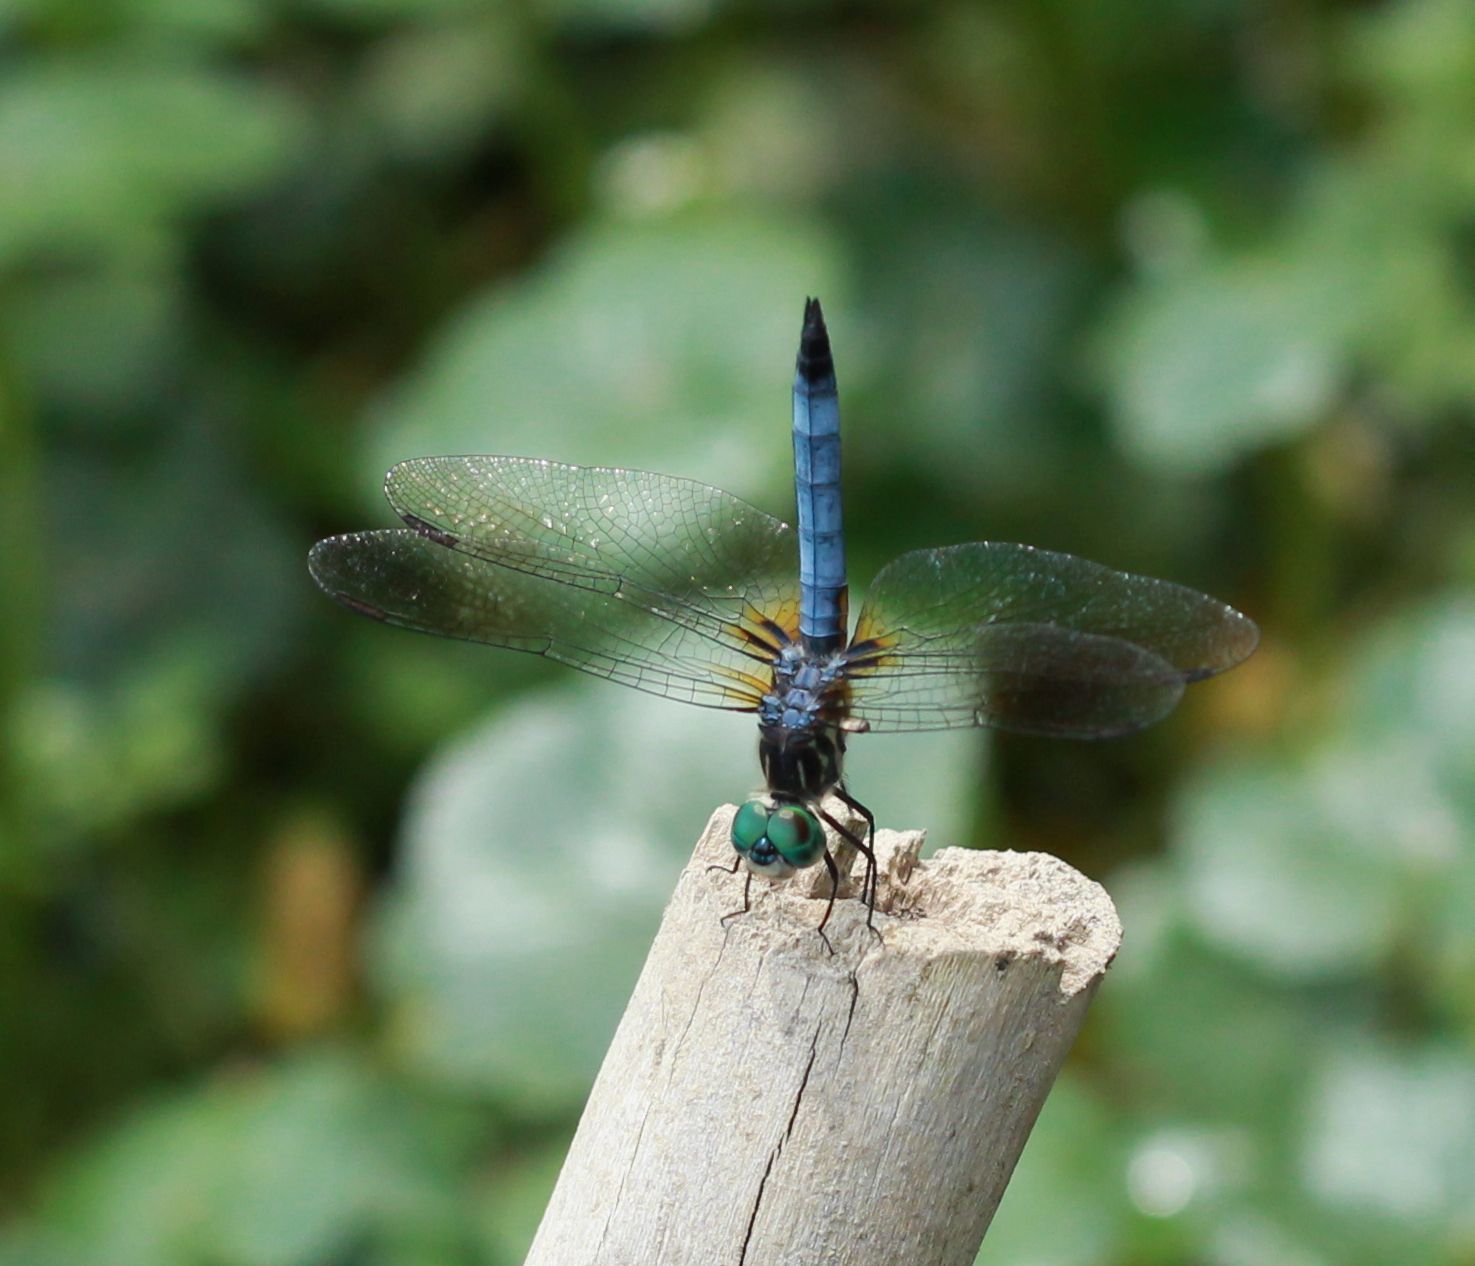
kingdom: Animalia
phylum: Arthropoda
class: Insecta
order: Odonata
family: Libellulidae
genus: Pachydiplax
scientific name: Pachydiplax longipennis
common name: Blue dasher
